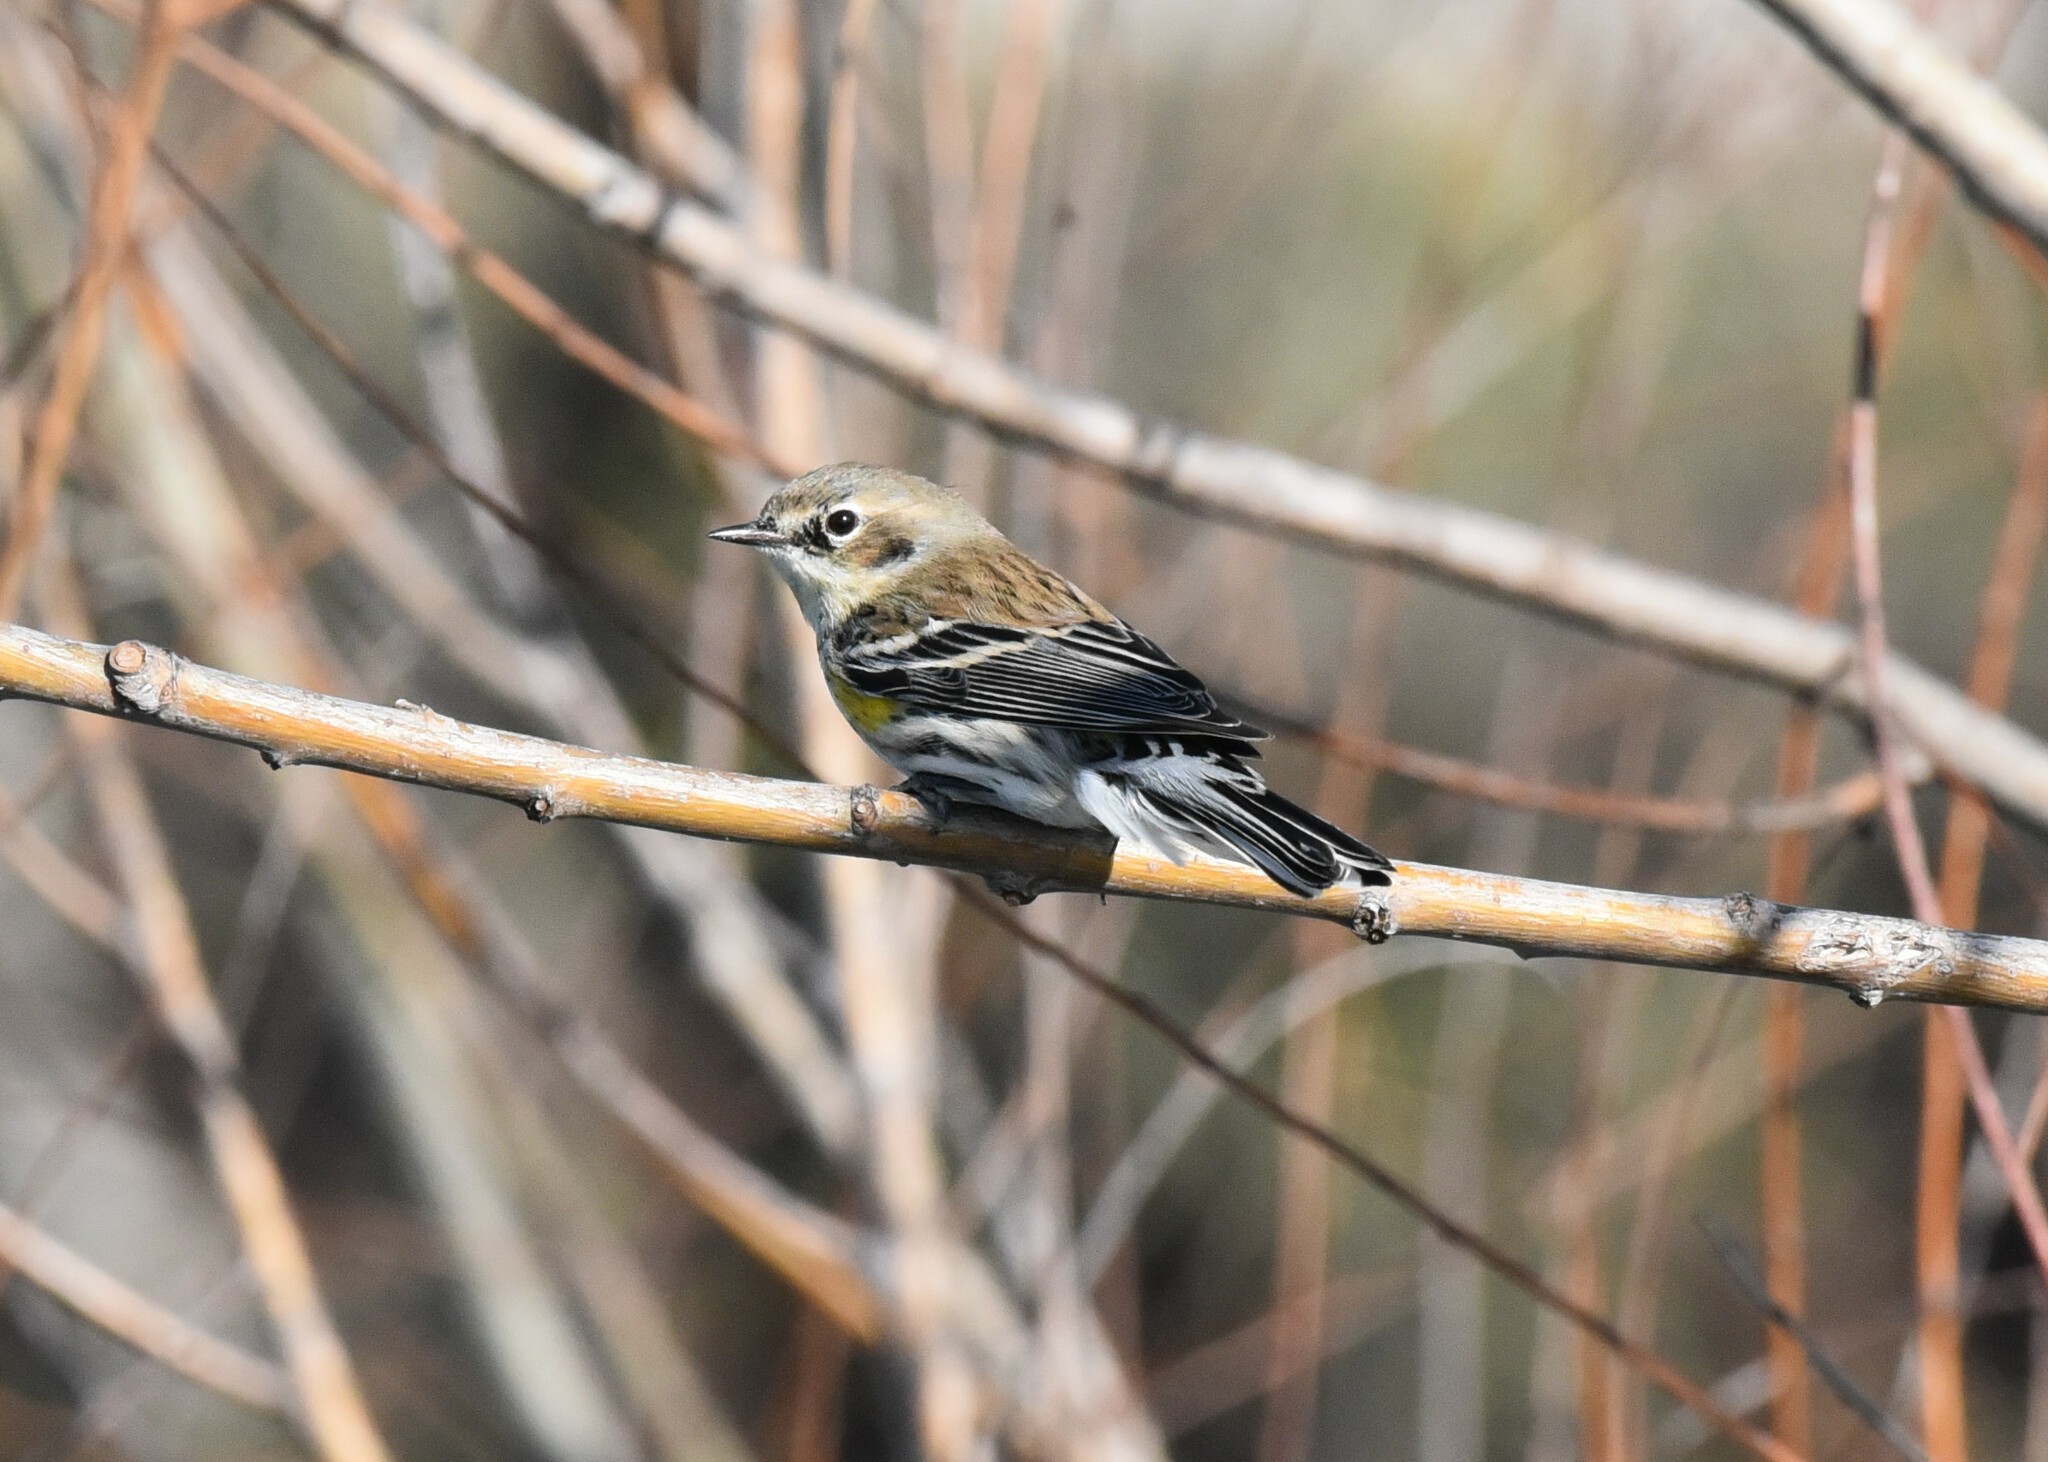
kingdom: Animalia
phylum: Chordata
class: Aves
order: Passeriformes
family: Parulidae
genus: Setophaga
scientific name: Setophaga coronata
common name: Myrtle warbler
